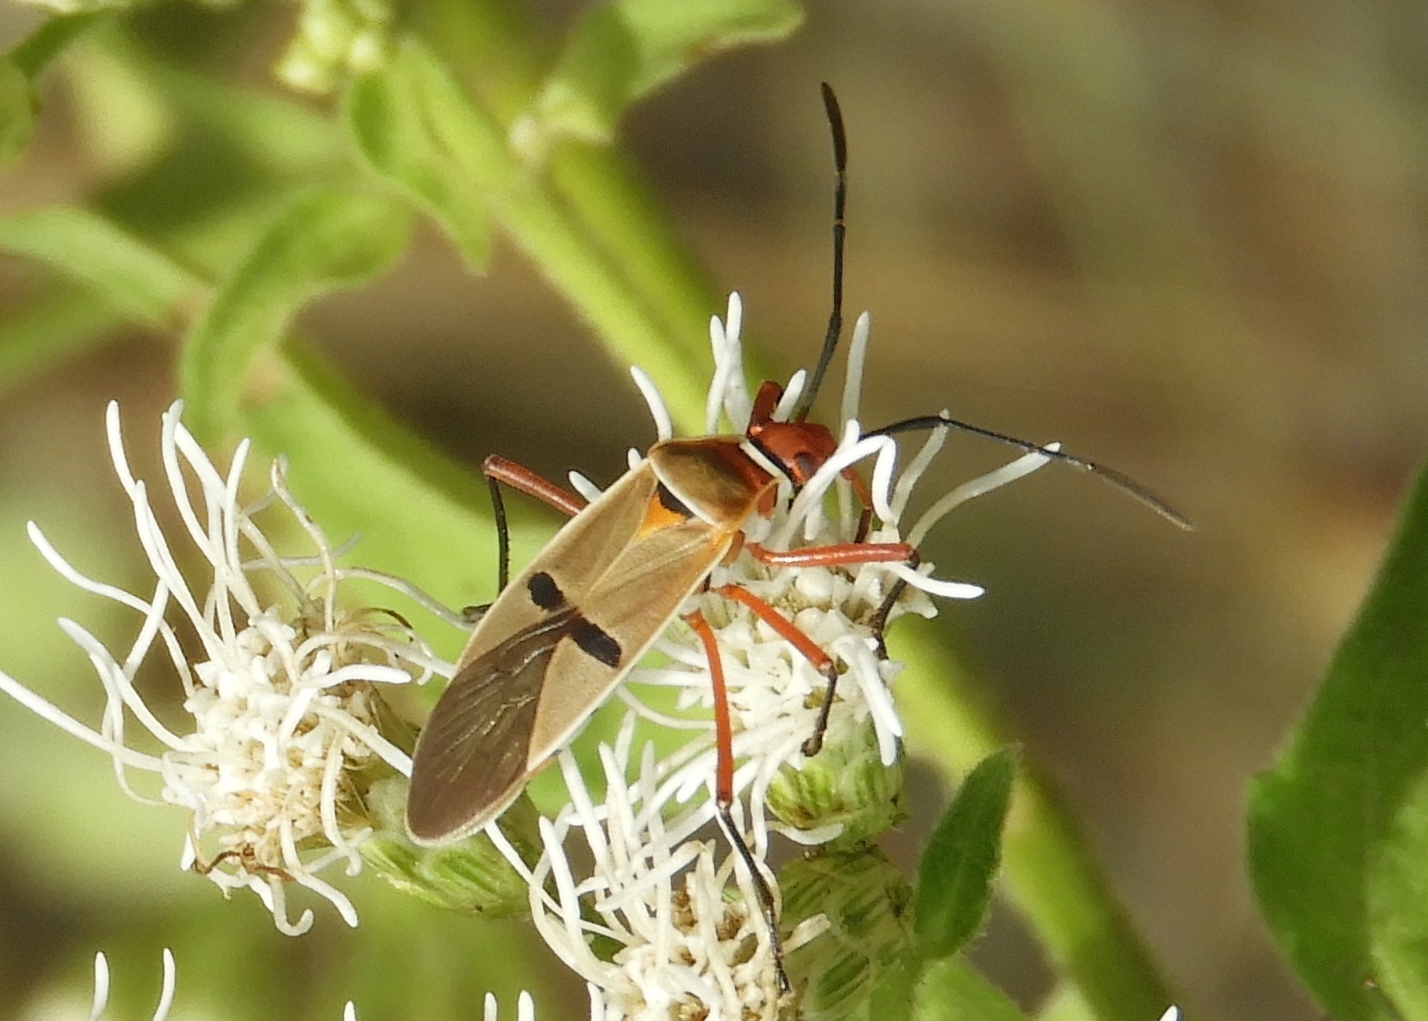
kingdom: Animalia
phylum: Arthropoda
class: Insecta
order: Hemiptera
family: Pyrrhocoridae
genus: Dysdercus
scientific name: Dysdercus
